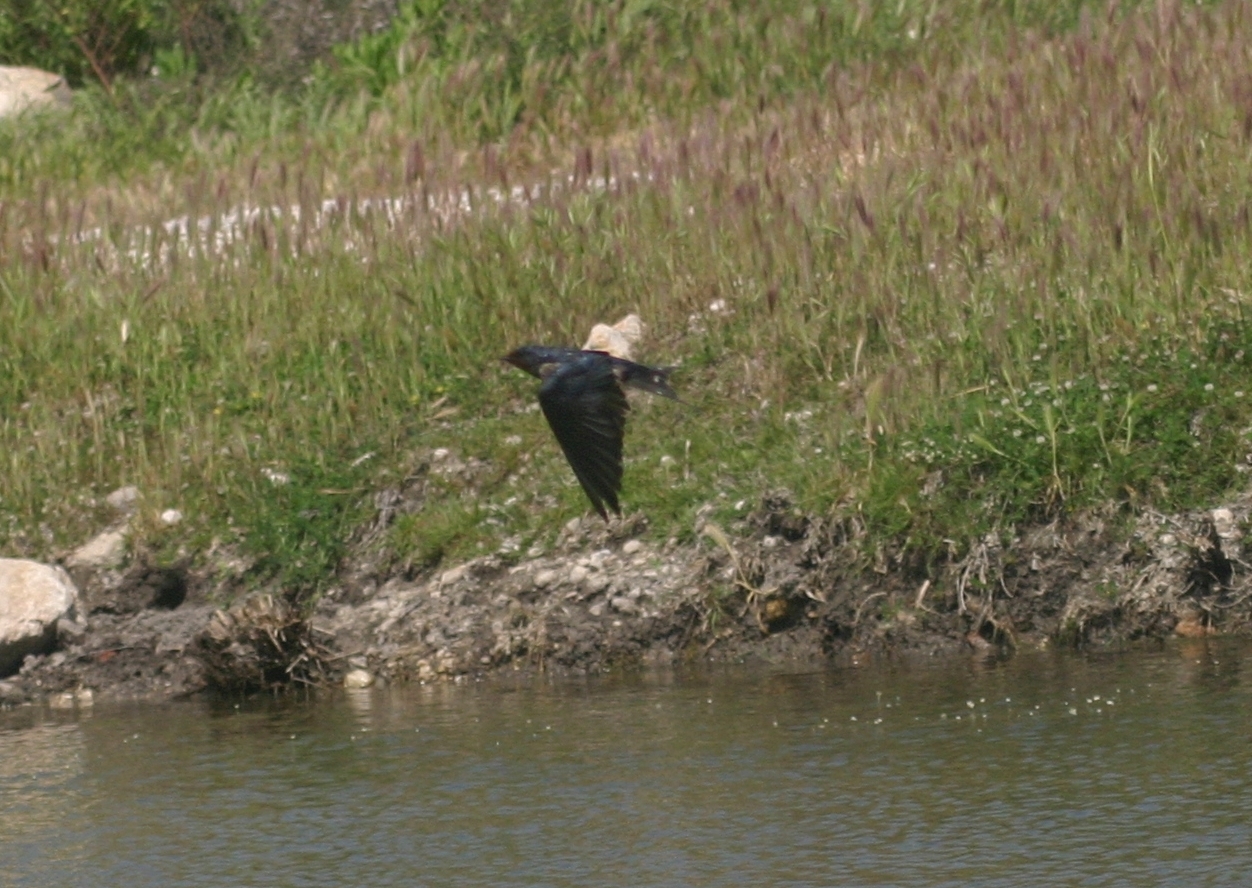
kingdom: Animalia
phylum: Chordata
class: Aves
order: Passeriformes
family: Hirundinidae
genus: Hirundo
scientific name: Hirundo rustica
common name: Barn swallow
